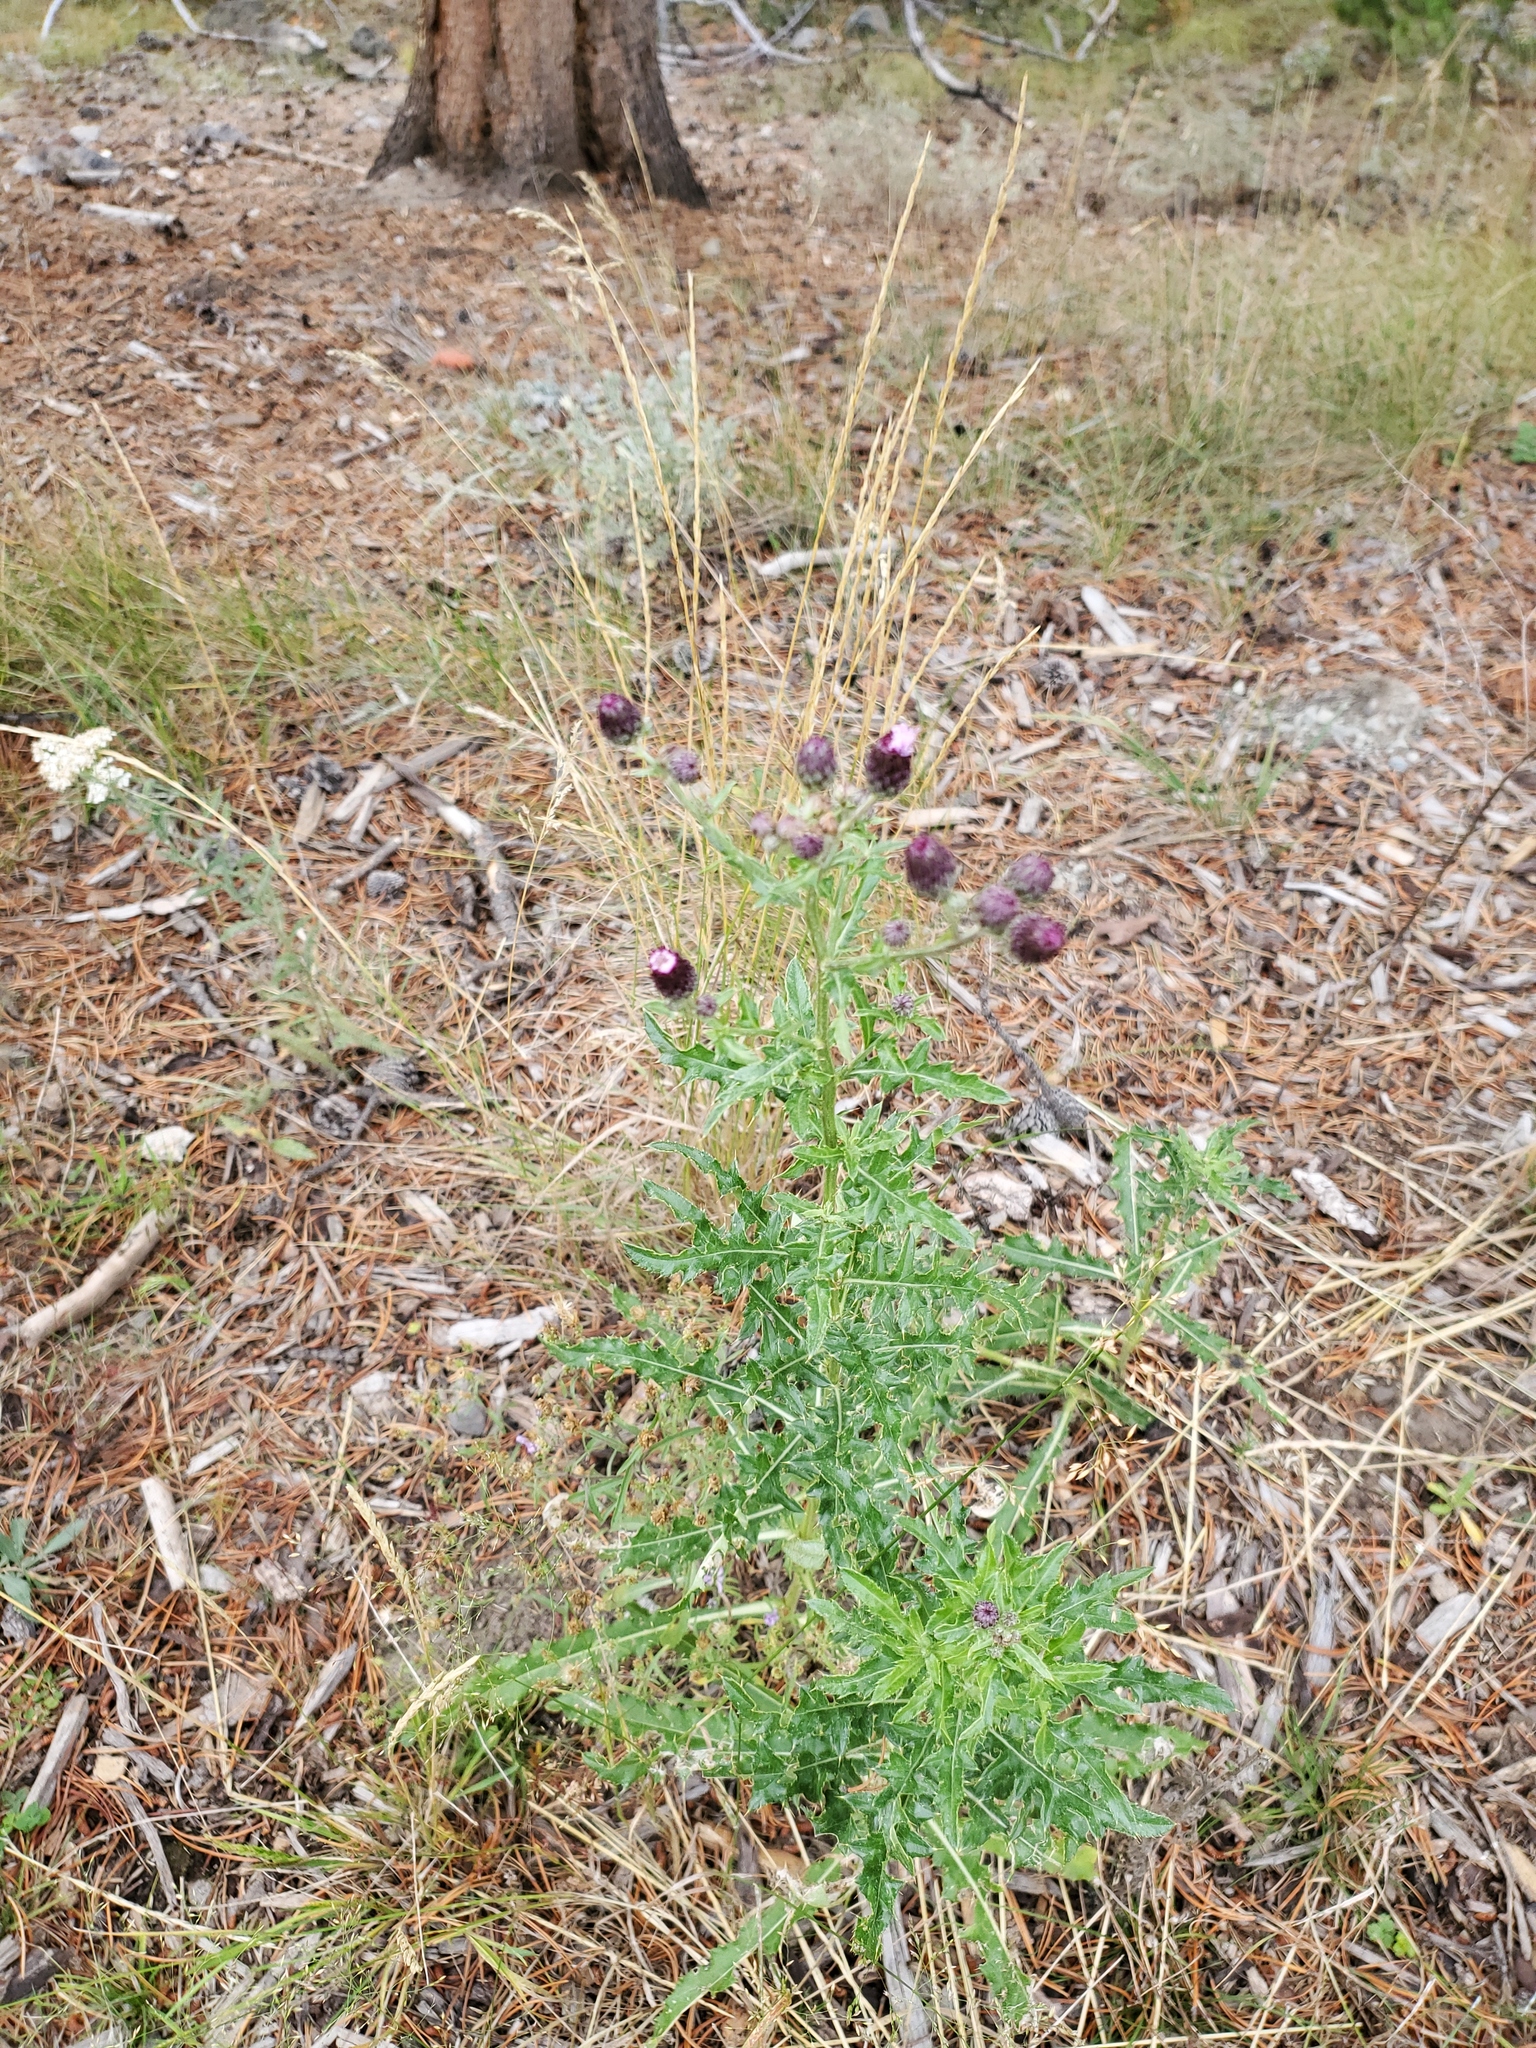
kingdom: Plantae
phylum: Tracheophyta
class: Magnoliopsida
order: Asterales
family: Asteraceae
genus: Cirsium
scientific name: Cirsium arvense
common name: Creeping thistle
